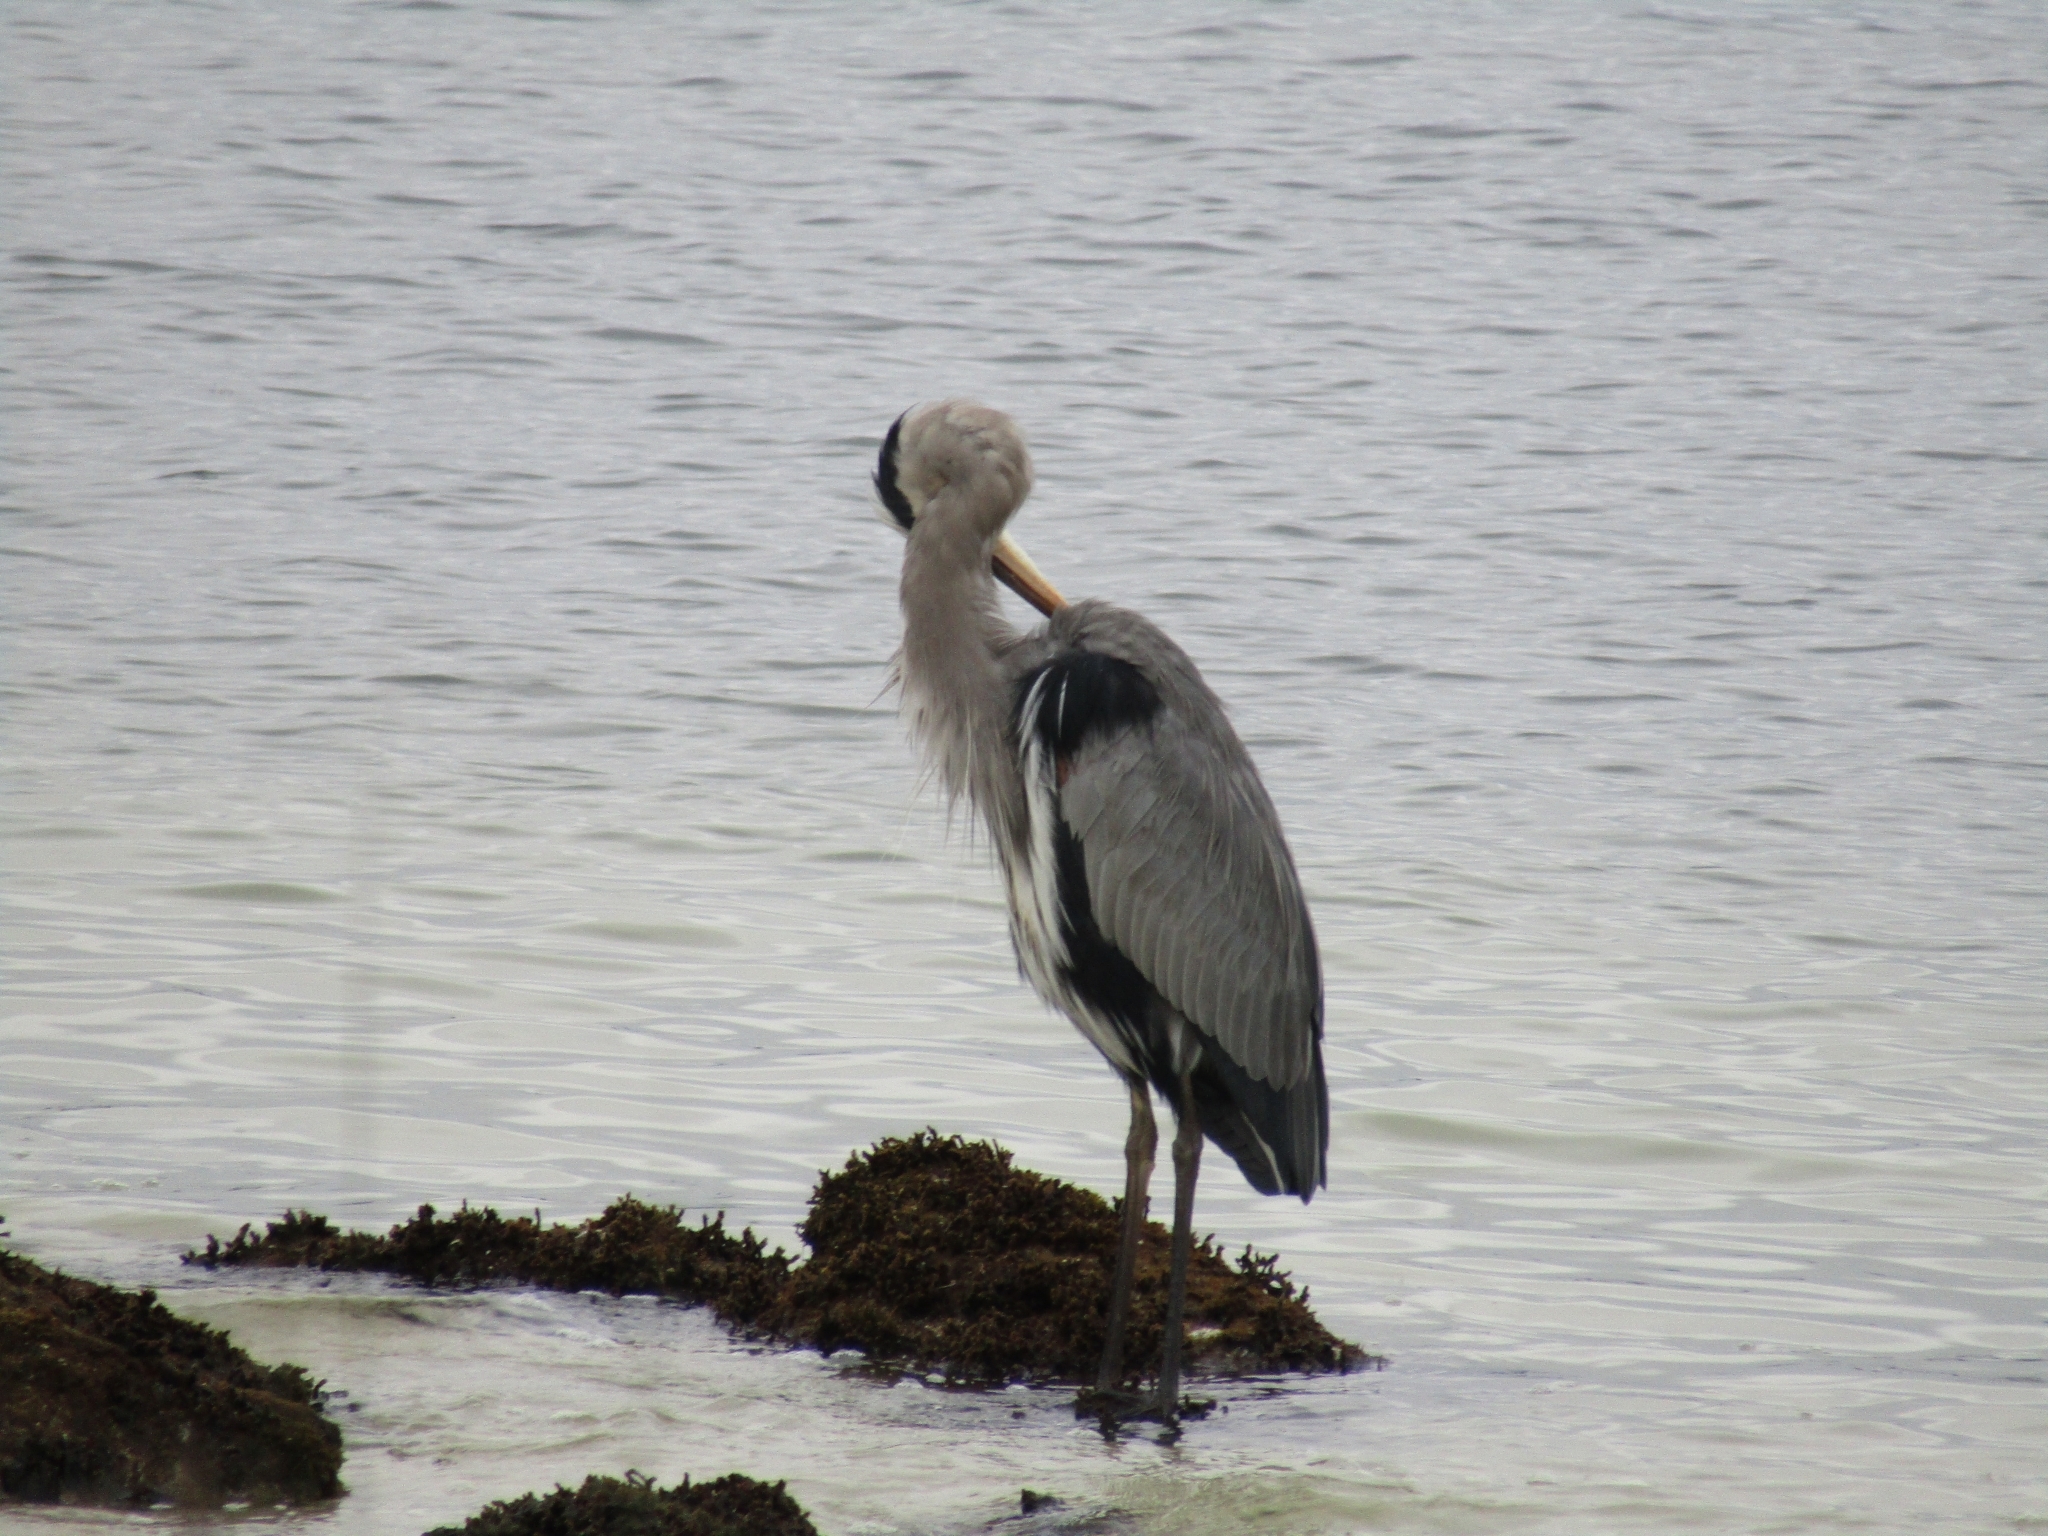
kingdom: Animalia
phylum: Chordata
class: Aves
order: Pelecaniformes
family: Ardeidae
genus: Ardea
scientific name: Ardea herodias
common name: Great blue heron
